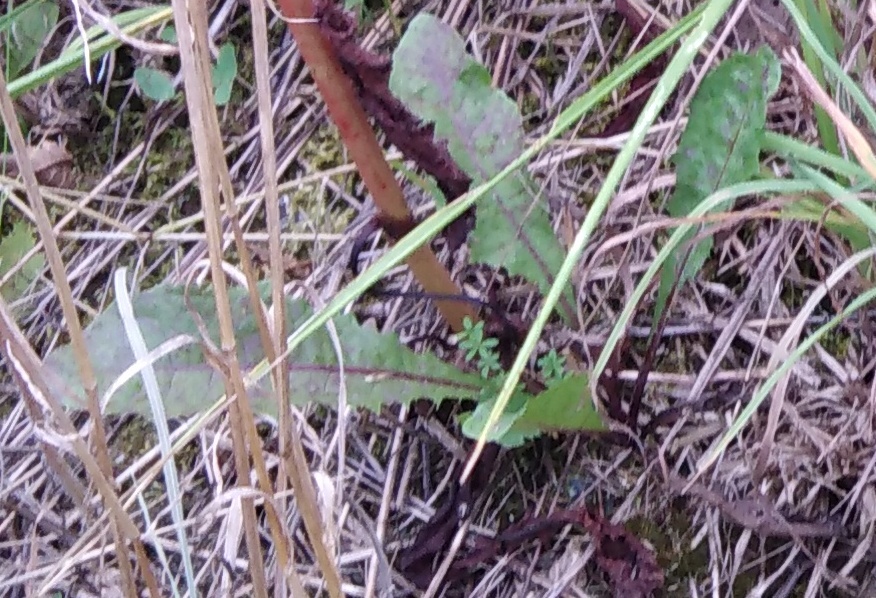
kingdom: Plantae
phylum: Tracheophyta
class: Magnoliopsida
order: Asterales
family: Asteraceae
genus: Taraxacum
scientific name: Taraxacum officinale
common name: Common dandelion
